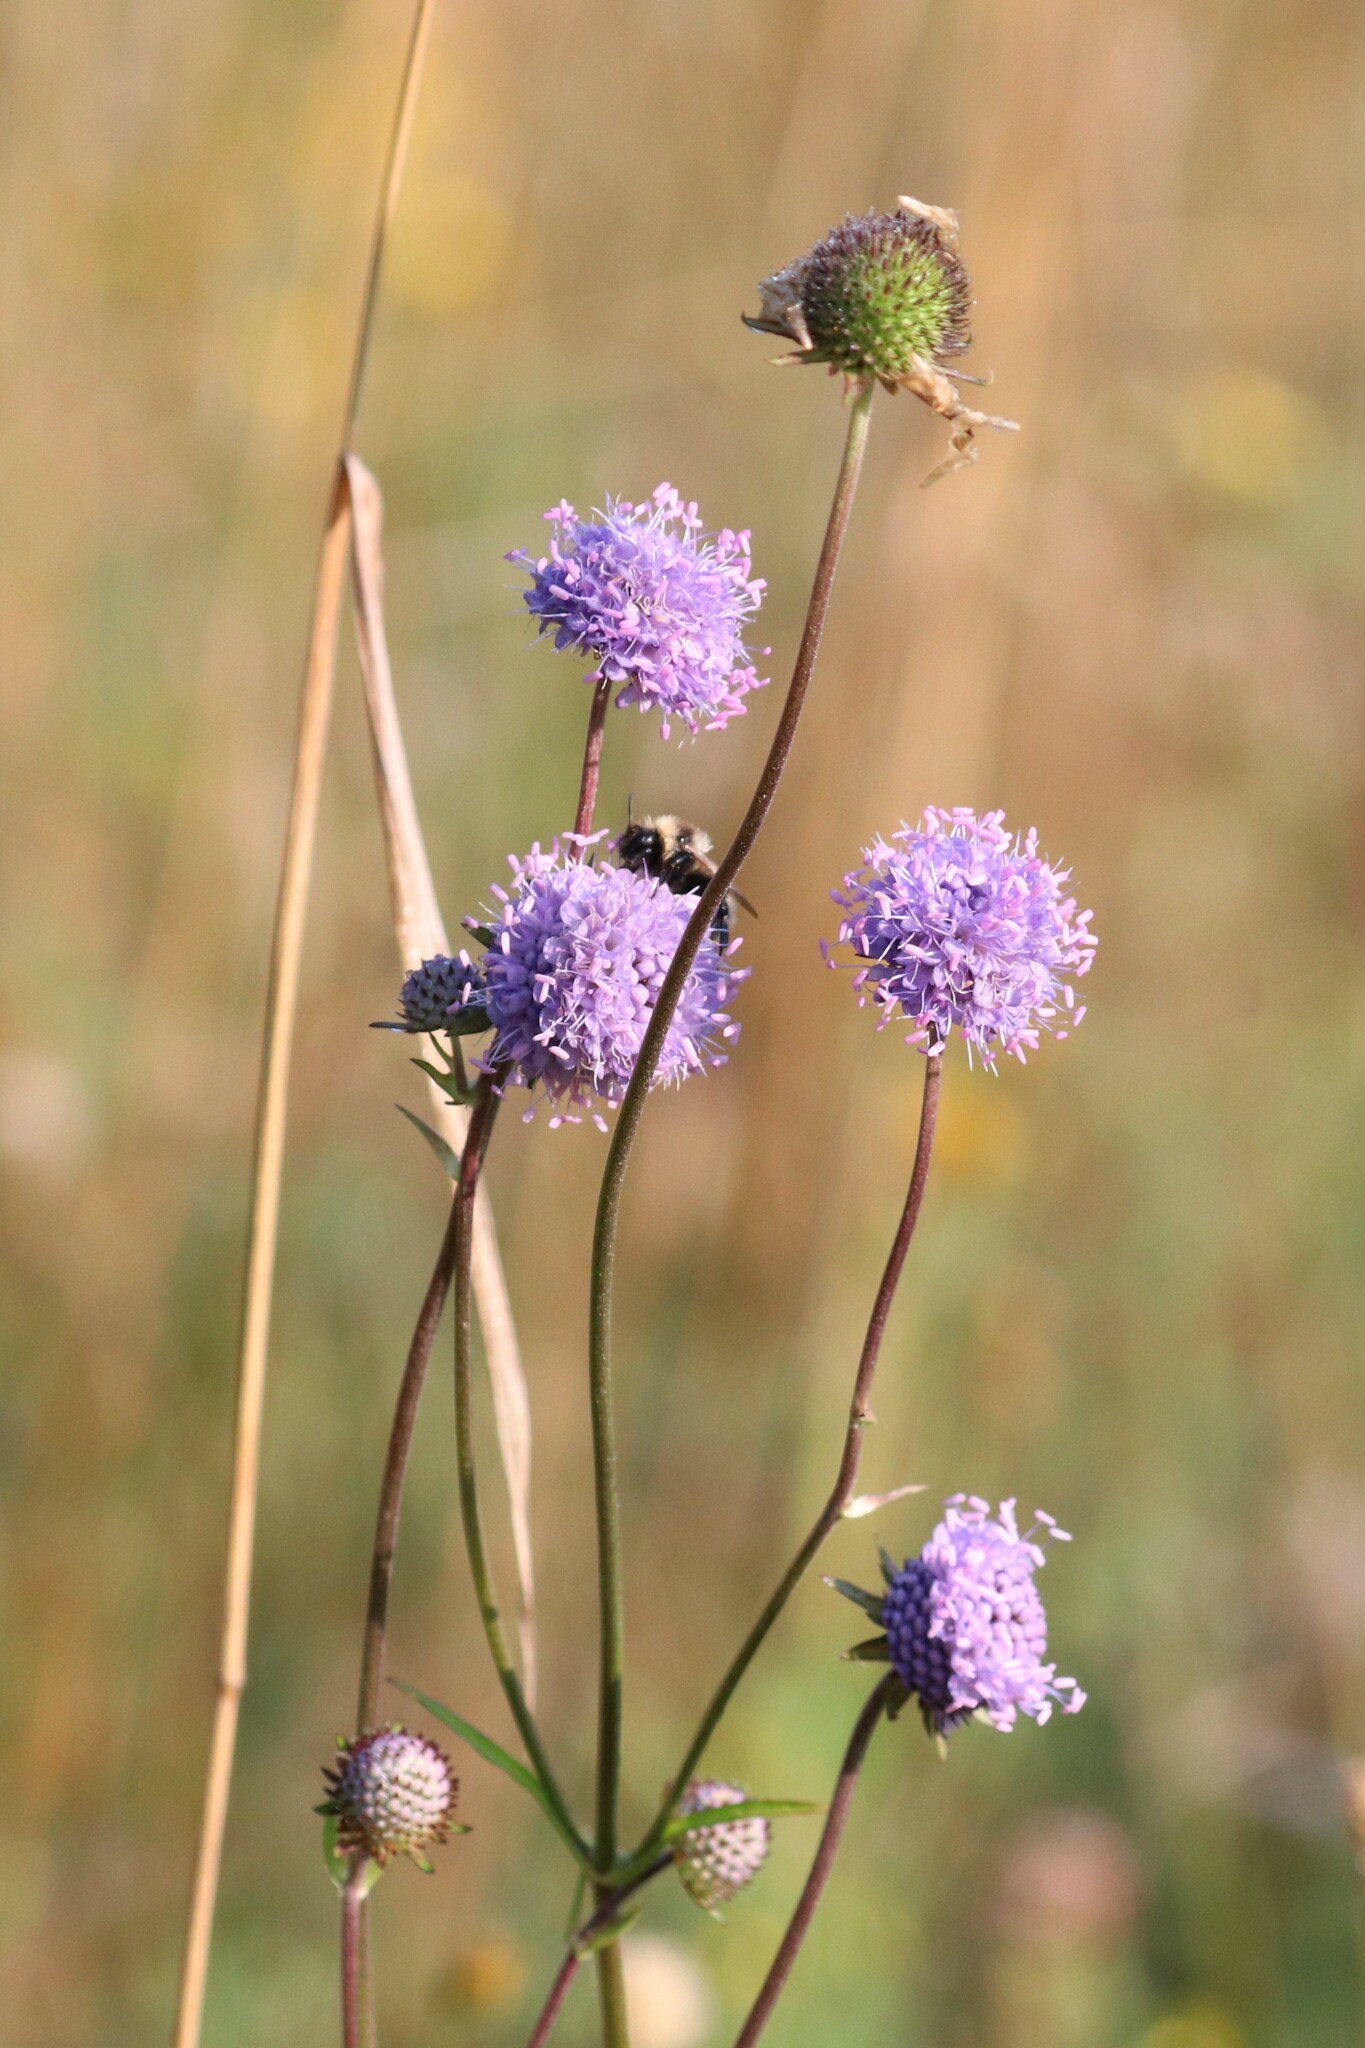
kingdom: Plantae
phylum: Tracheophyta
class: Magnoliopsida
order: Dipsacales
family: Caprifoliaceae
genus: Succisa
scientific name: Succisa pratensis
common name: Devil's-bit
